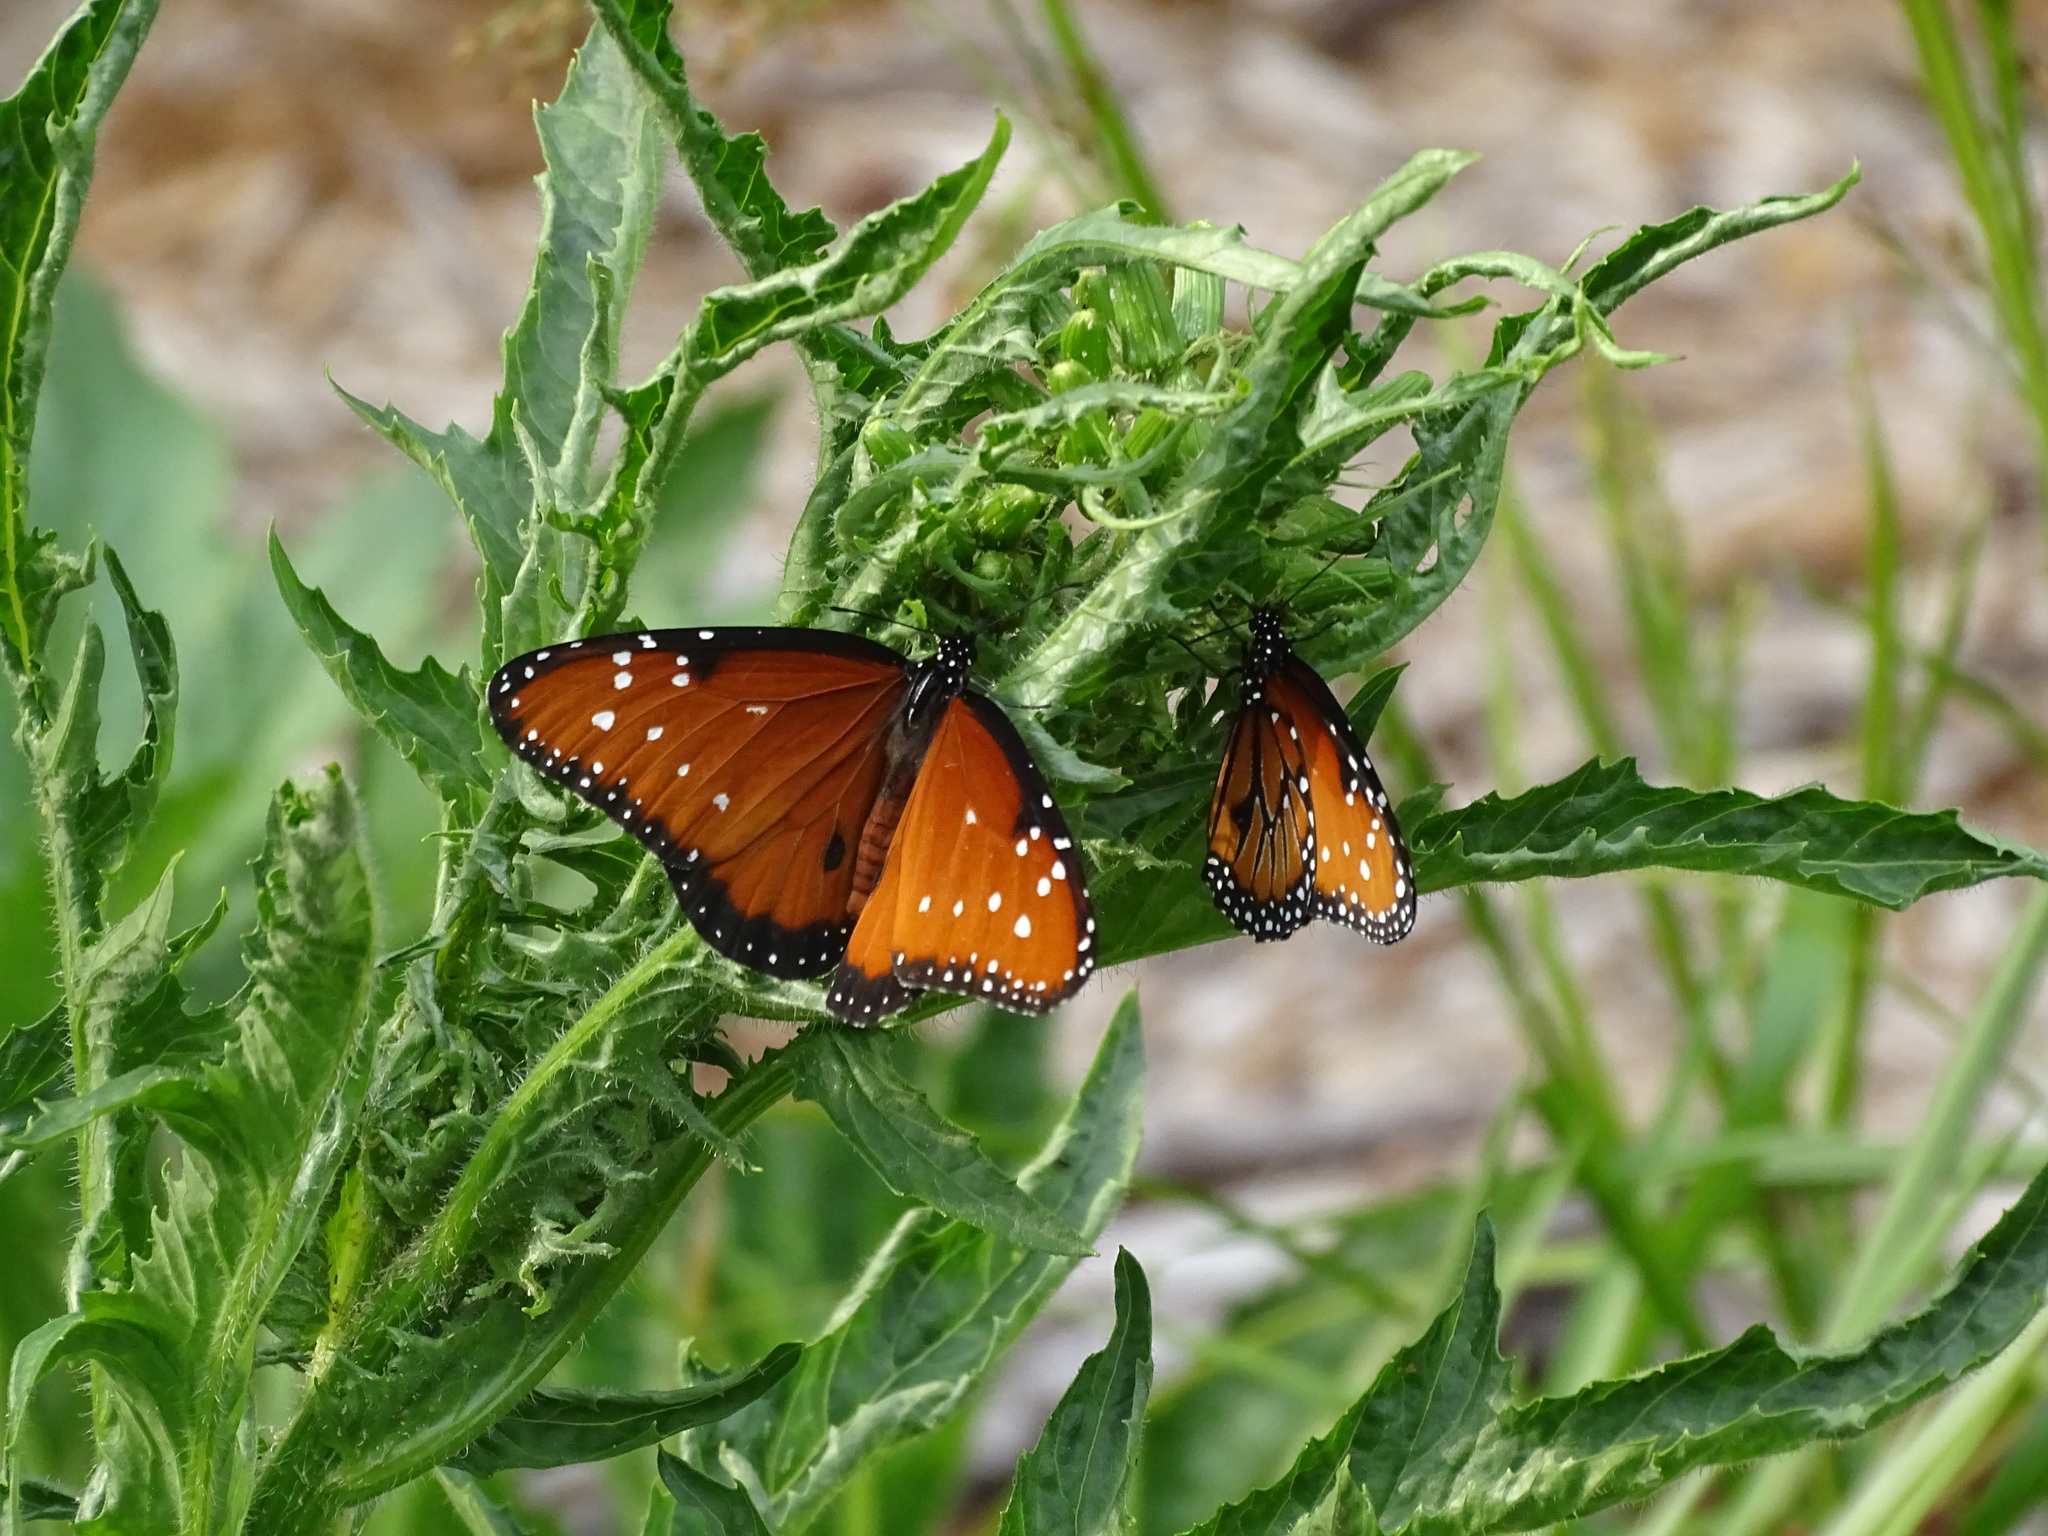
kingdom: Animalia
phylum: Arthropoda
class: Insecta
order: Lepidoptera
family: Nymphalidae
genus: Danaus
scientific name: Danaus gilippus
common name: Queen
